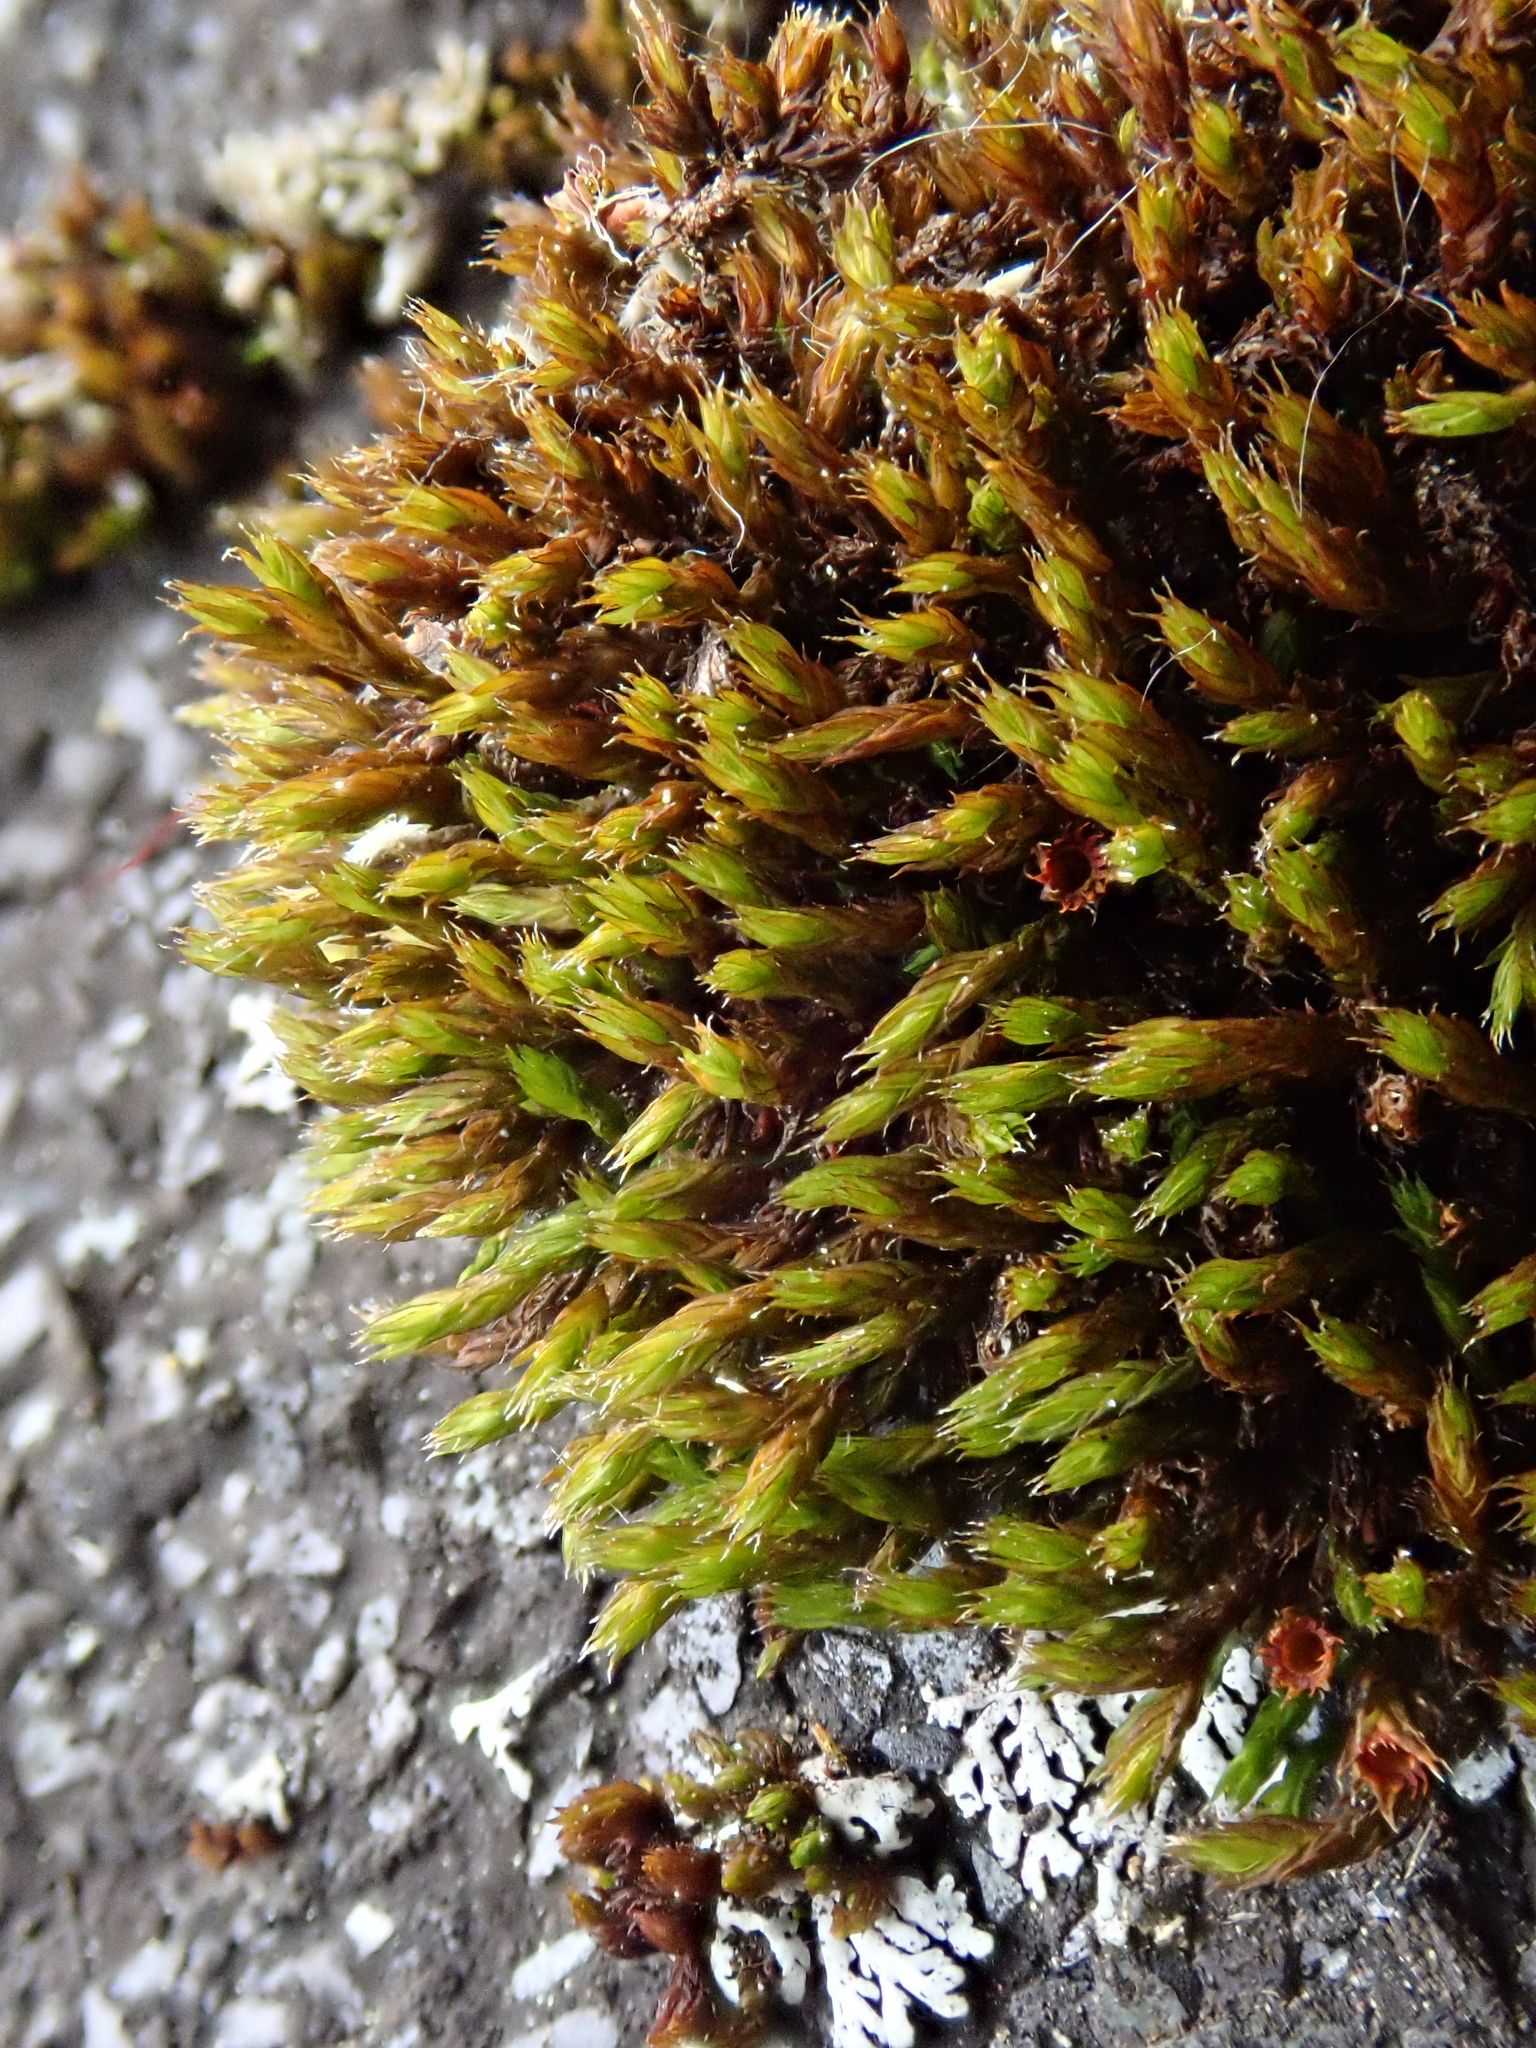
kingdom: Plantae
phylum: Bryophyta
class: Bryopsida
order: Grimmiales
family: Grimmiaceae
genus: Schistidium
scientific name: Schistidium crassipilum
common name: Thickpoint bloom moss
